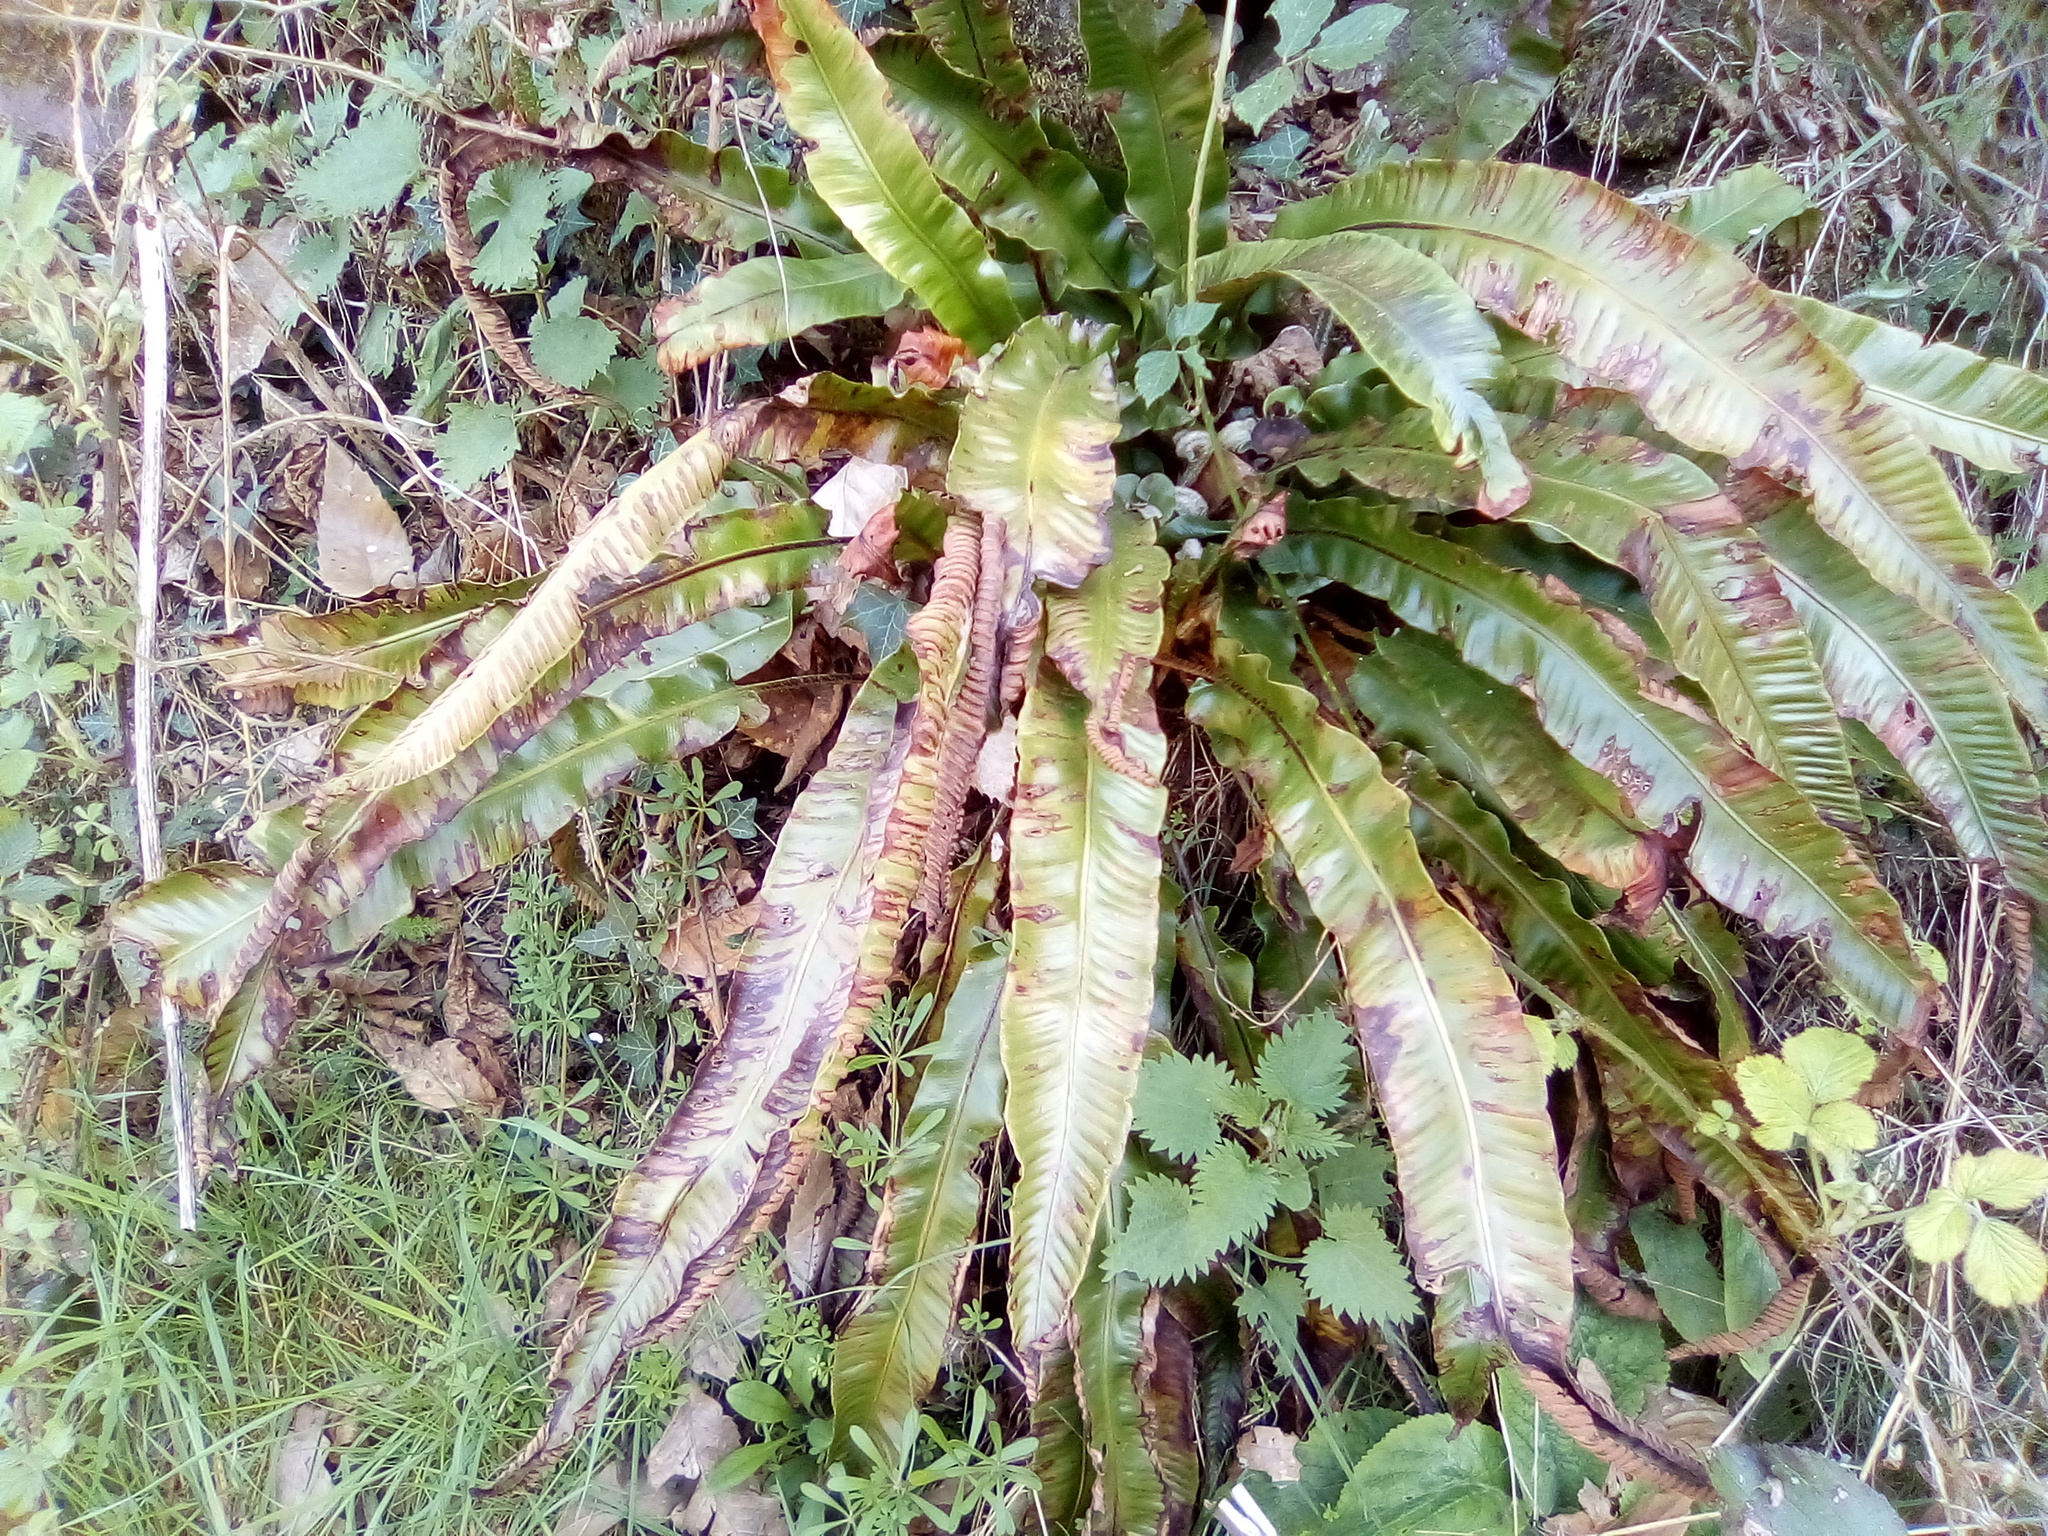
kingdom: Plantae
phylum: Tracheophyta
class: Polypodiopsida
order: Polypodiales
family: Aspleniaceae
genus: Asplenium
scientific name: Asplenium scolopendrium
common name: Hart's-tongue fern
